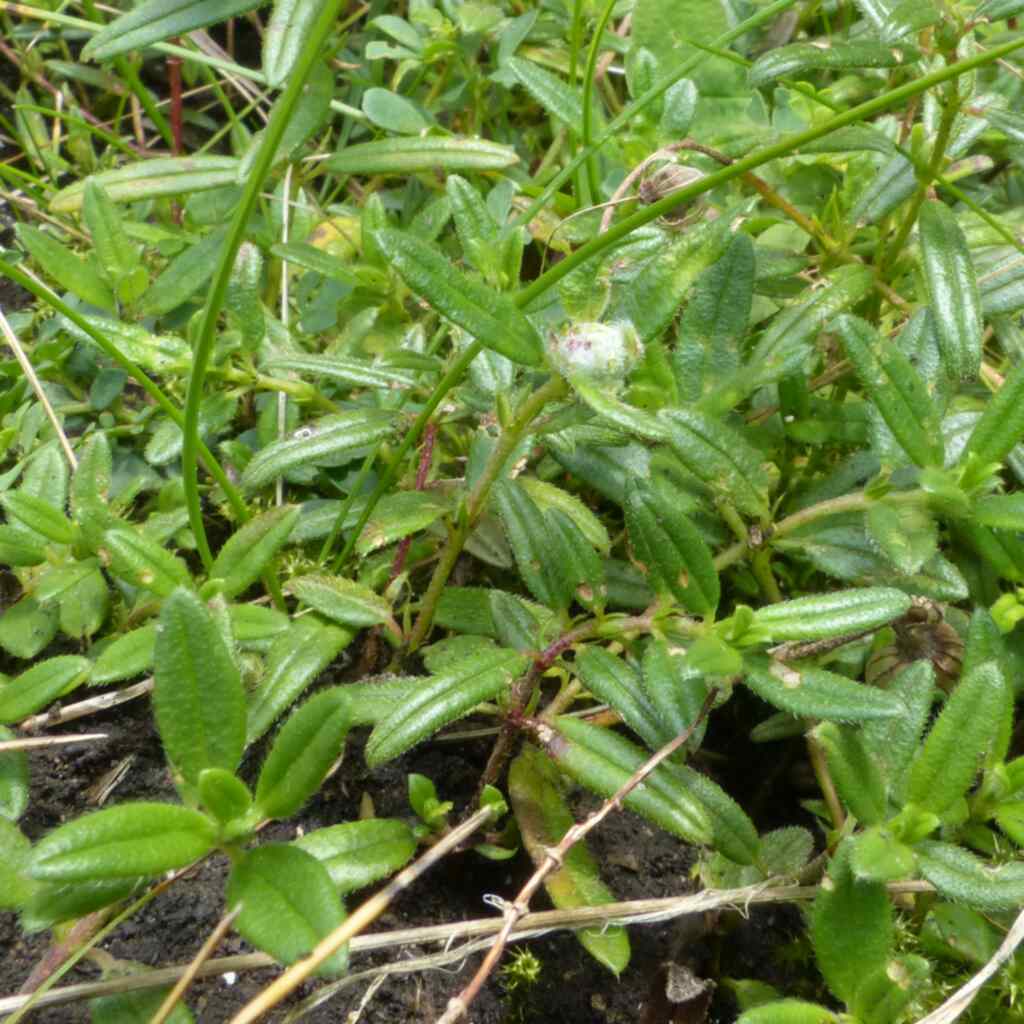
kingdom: Animalia
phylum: Arthropoda
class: Insecta
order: Diptera
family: Cecidomyiidae
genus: Contarinia
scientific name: Contarinia helianthemi
